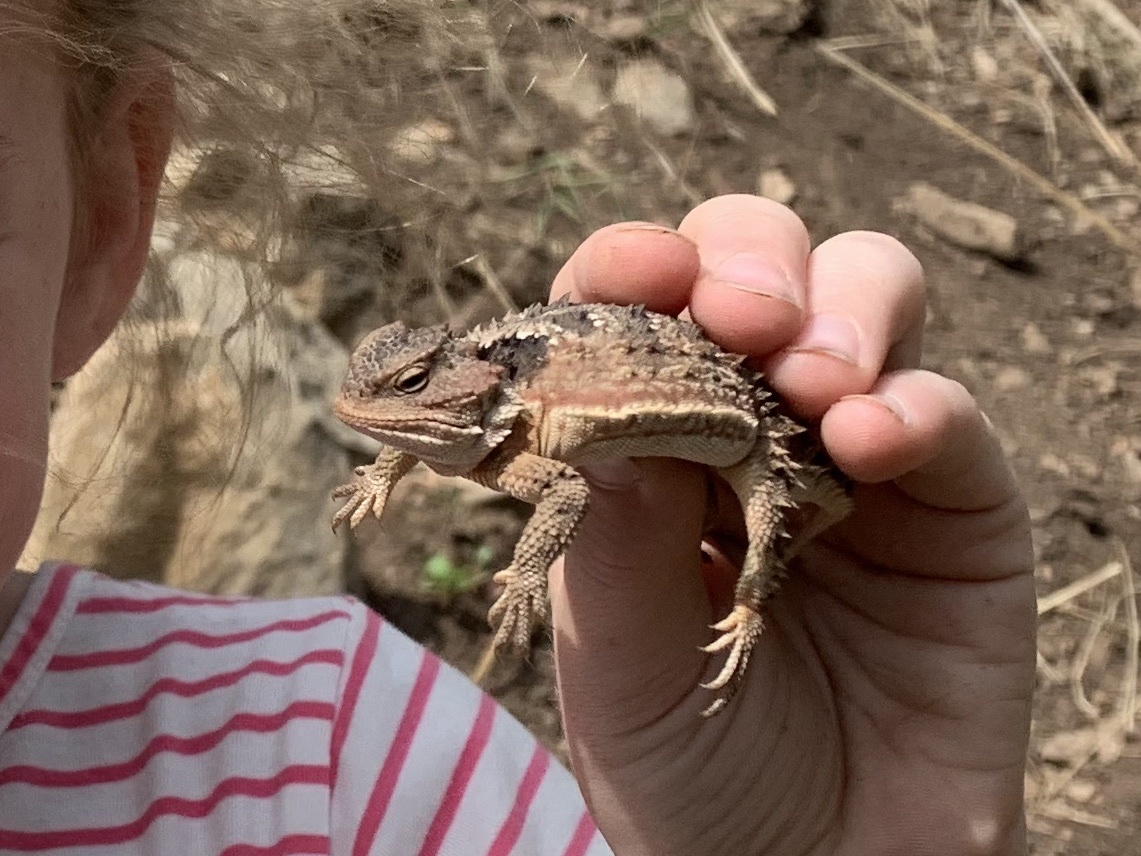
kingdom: Animalia
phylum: Chordata
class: Squamata
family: Phrynosomatidae
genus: Phrynosoma
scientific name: Phrynosoma hernandesi
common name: Greater short-horned lizard
